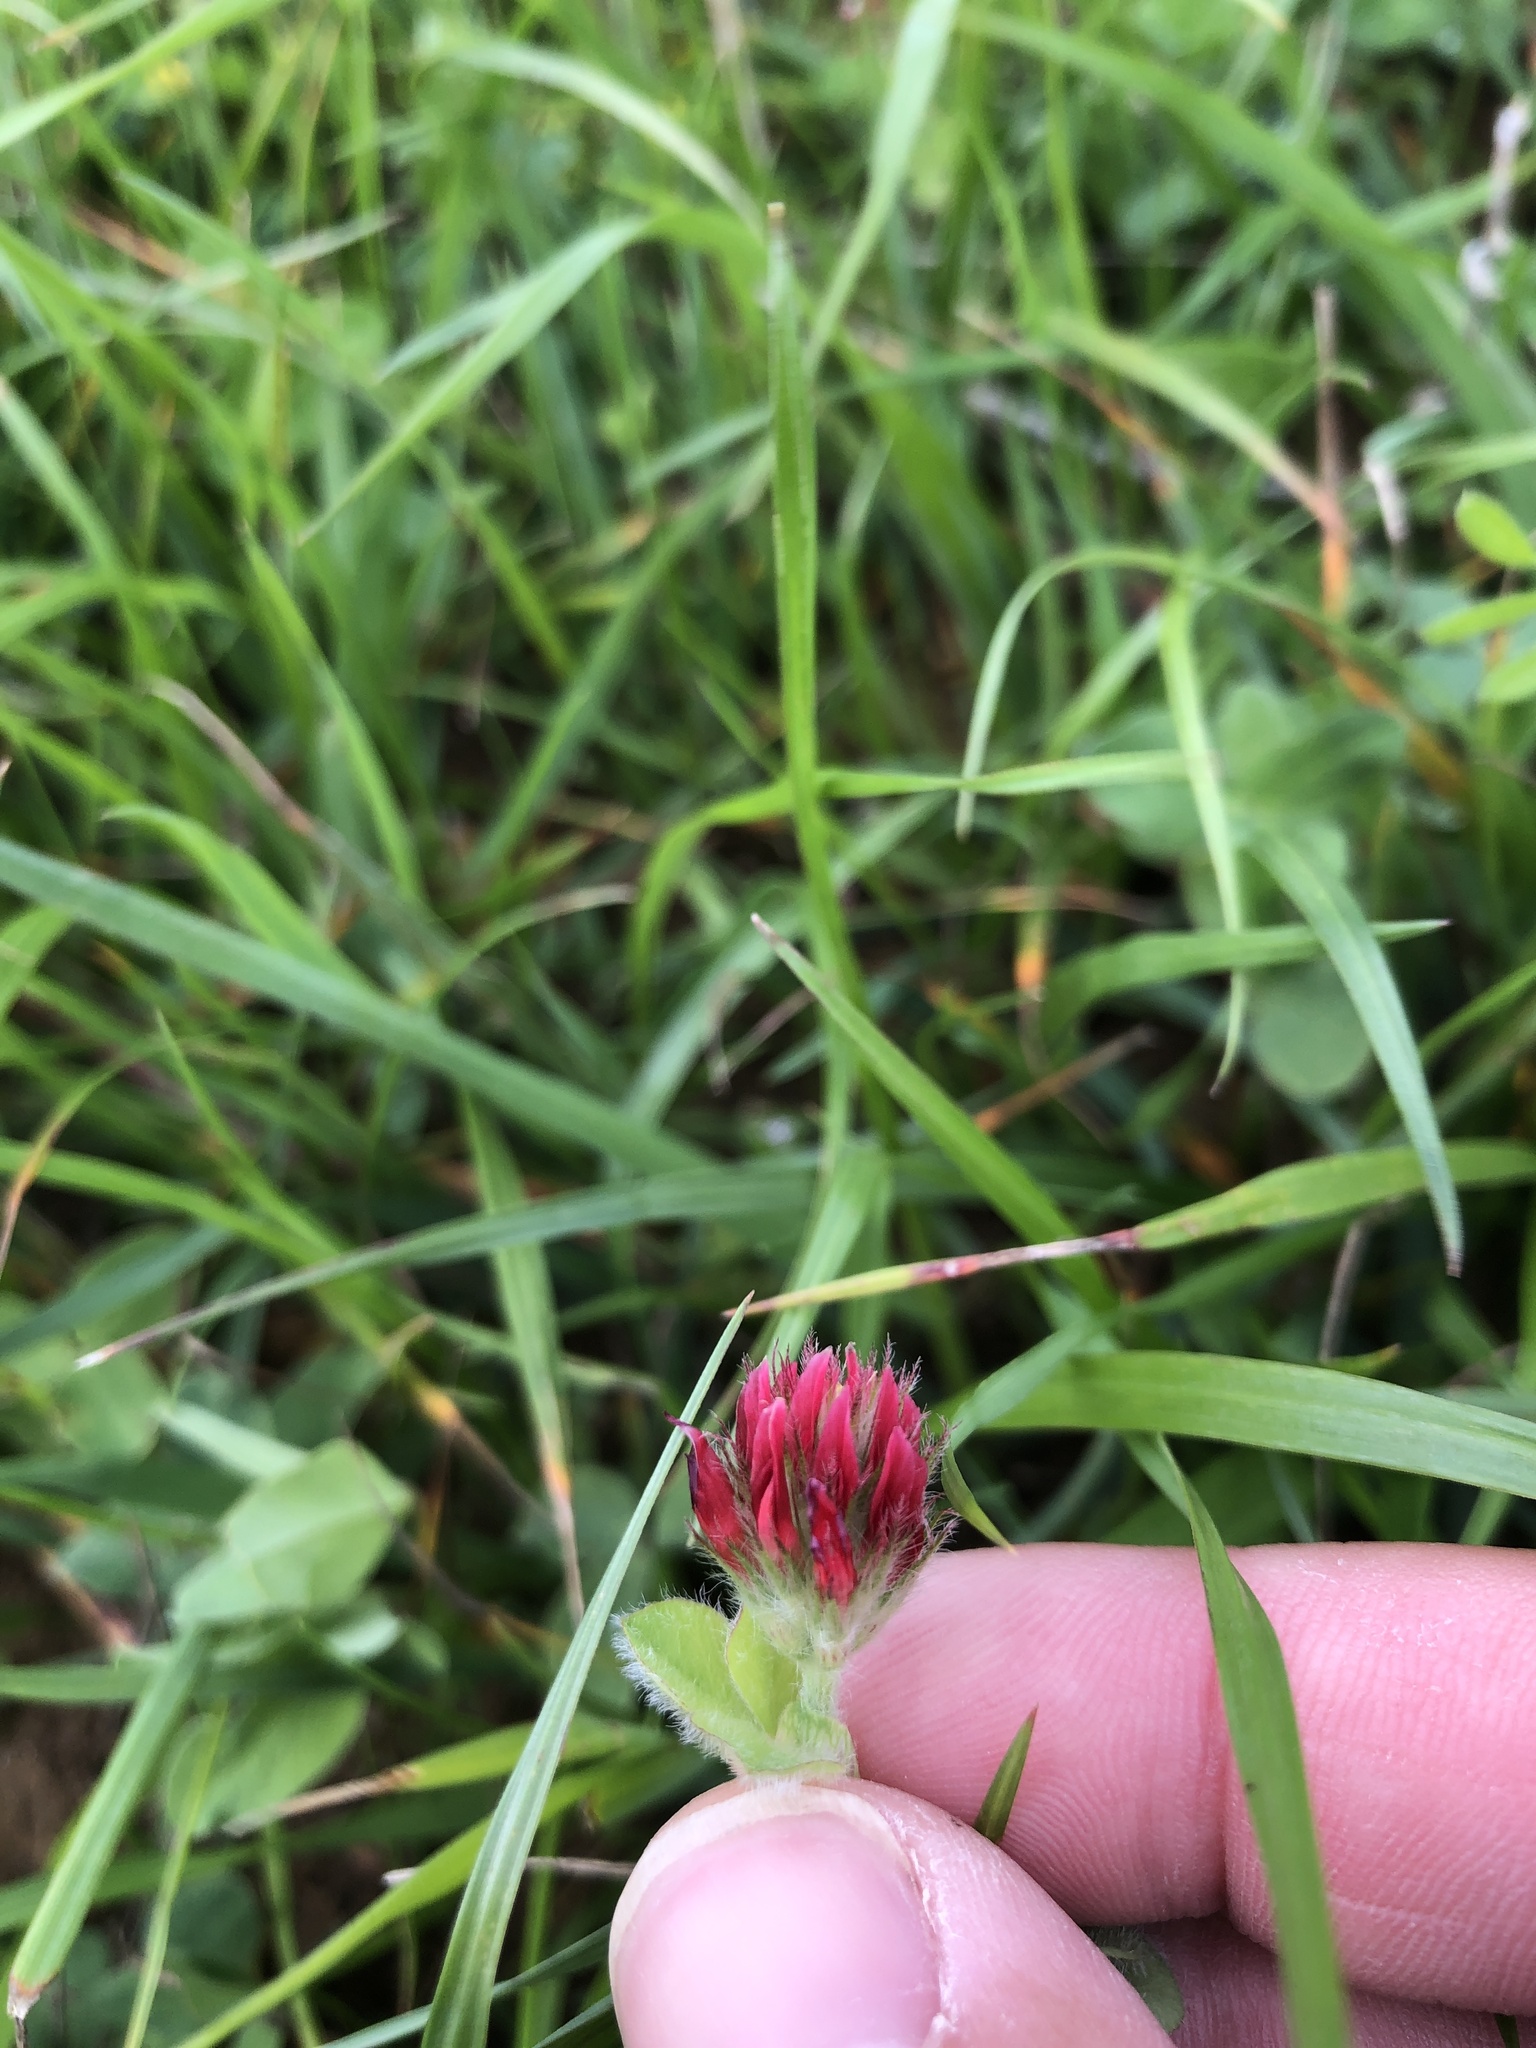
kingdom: Plantae
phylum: Tracheophyta
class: Magnoliopsida
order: Fabales
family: Fabaceae
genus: Trifolium
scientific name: Trifolium incarnatum
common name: Crimson clover
